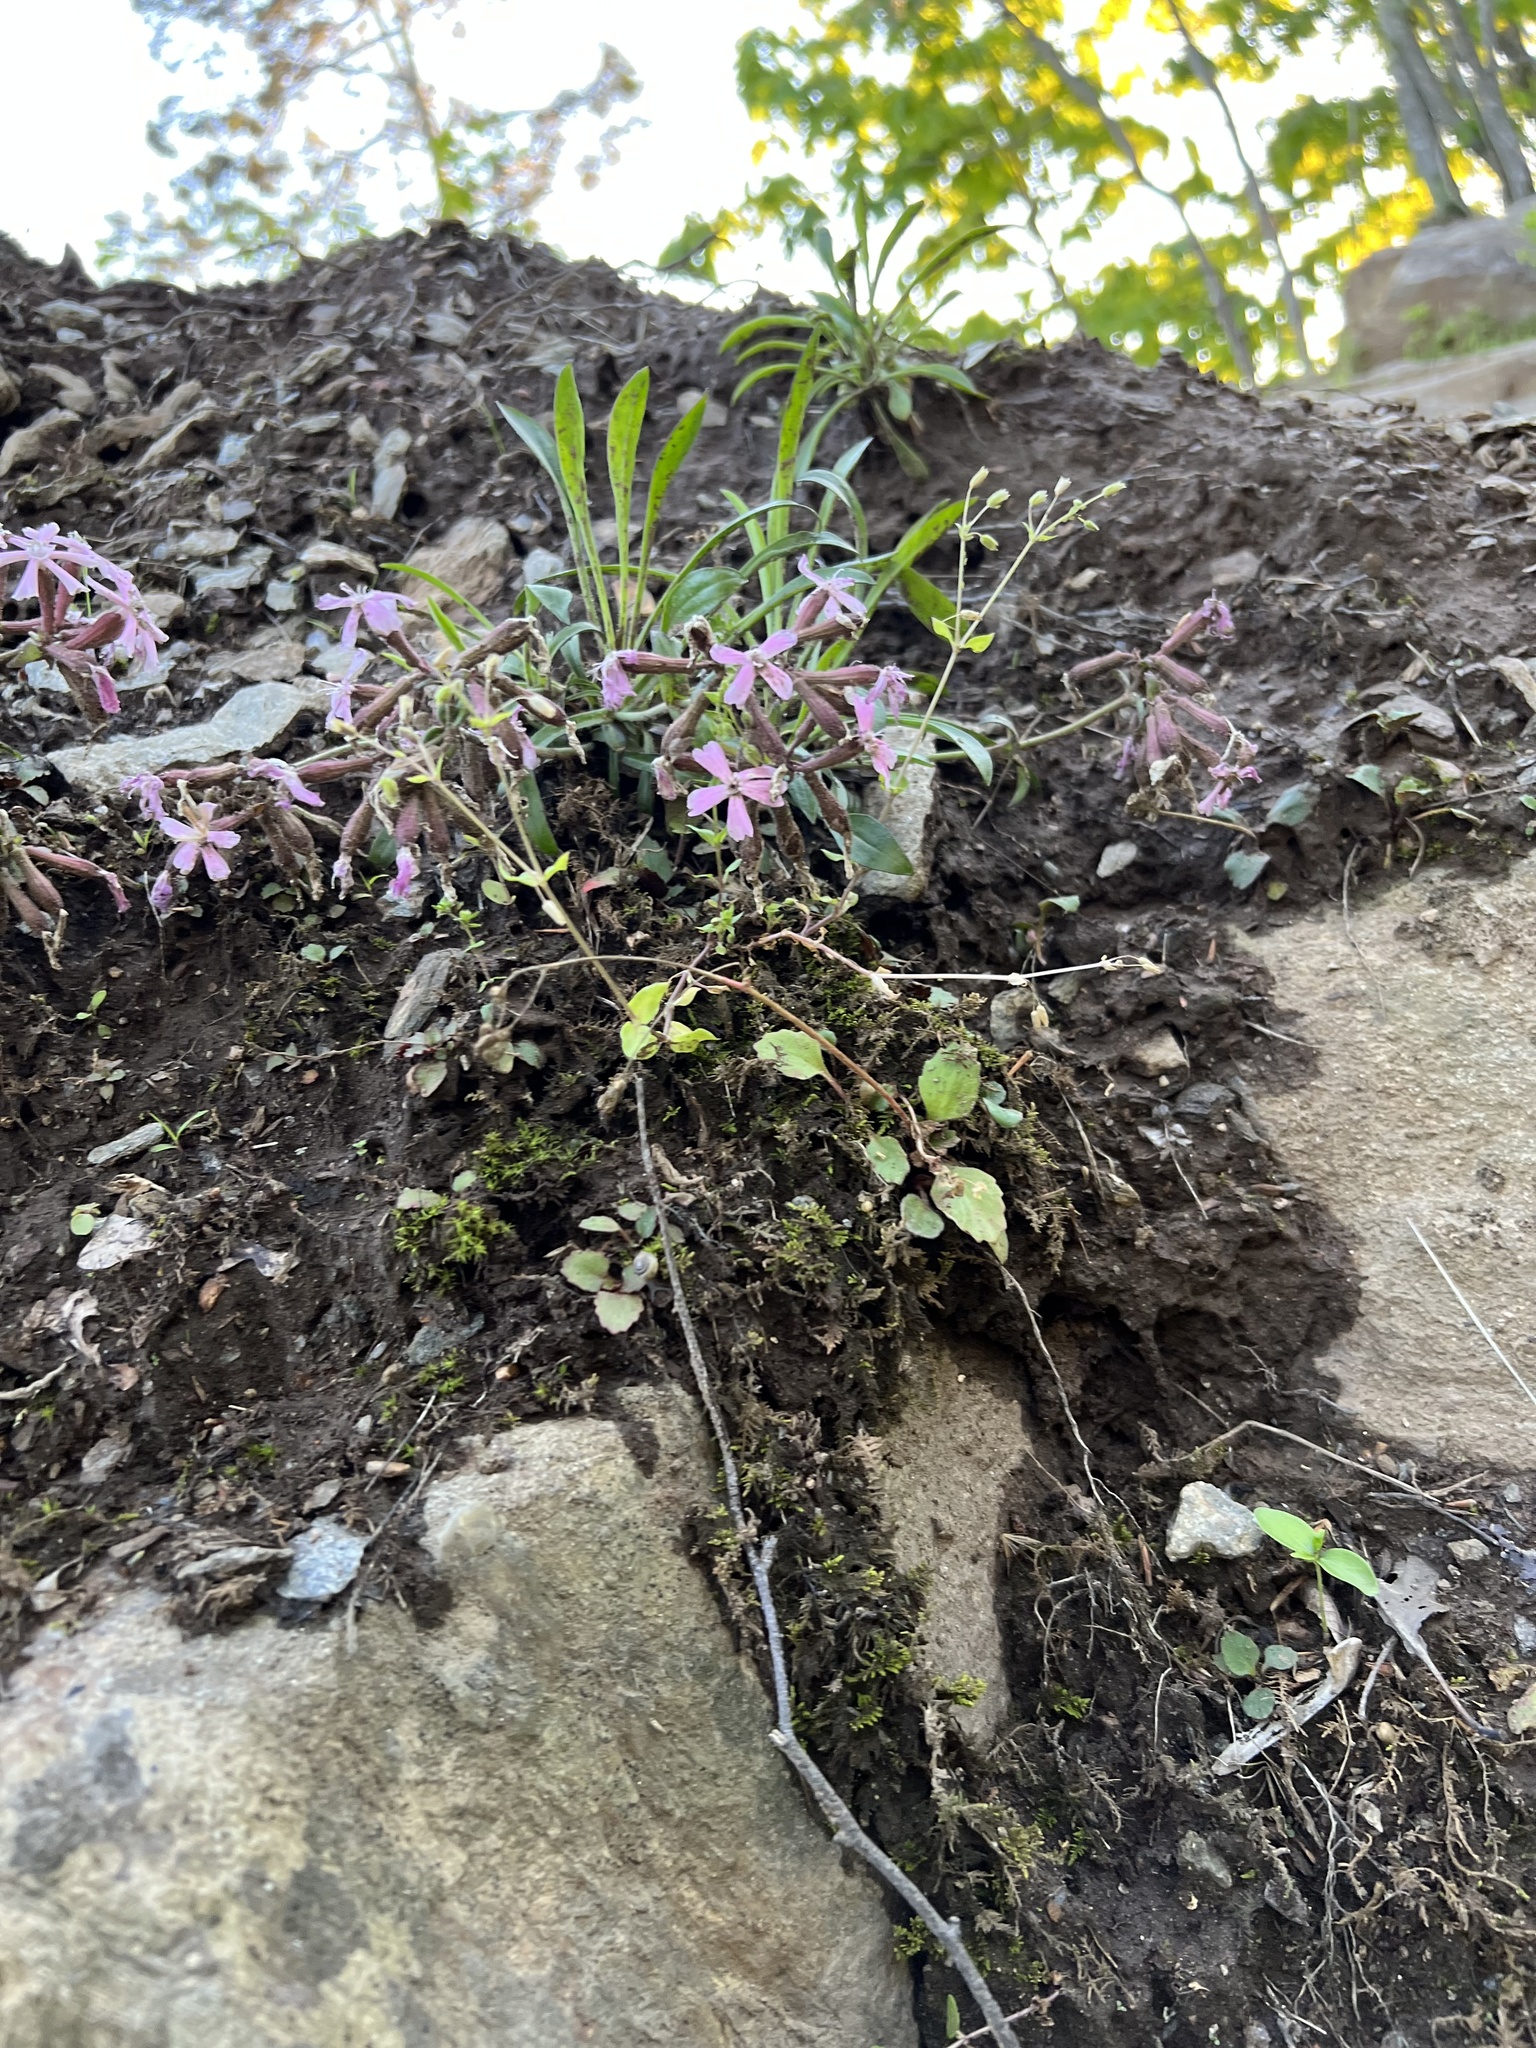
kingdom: Plantae
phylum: Tracheophyta
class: Magnoliopsida
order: Caryophyllales
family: Caryophyllaceae
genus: Silene
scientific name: Silene caroliniana
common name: Sticky catchfly
